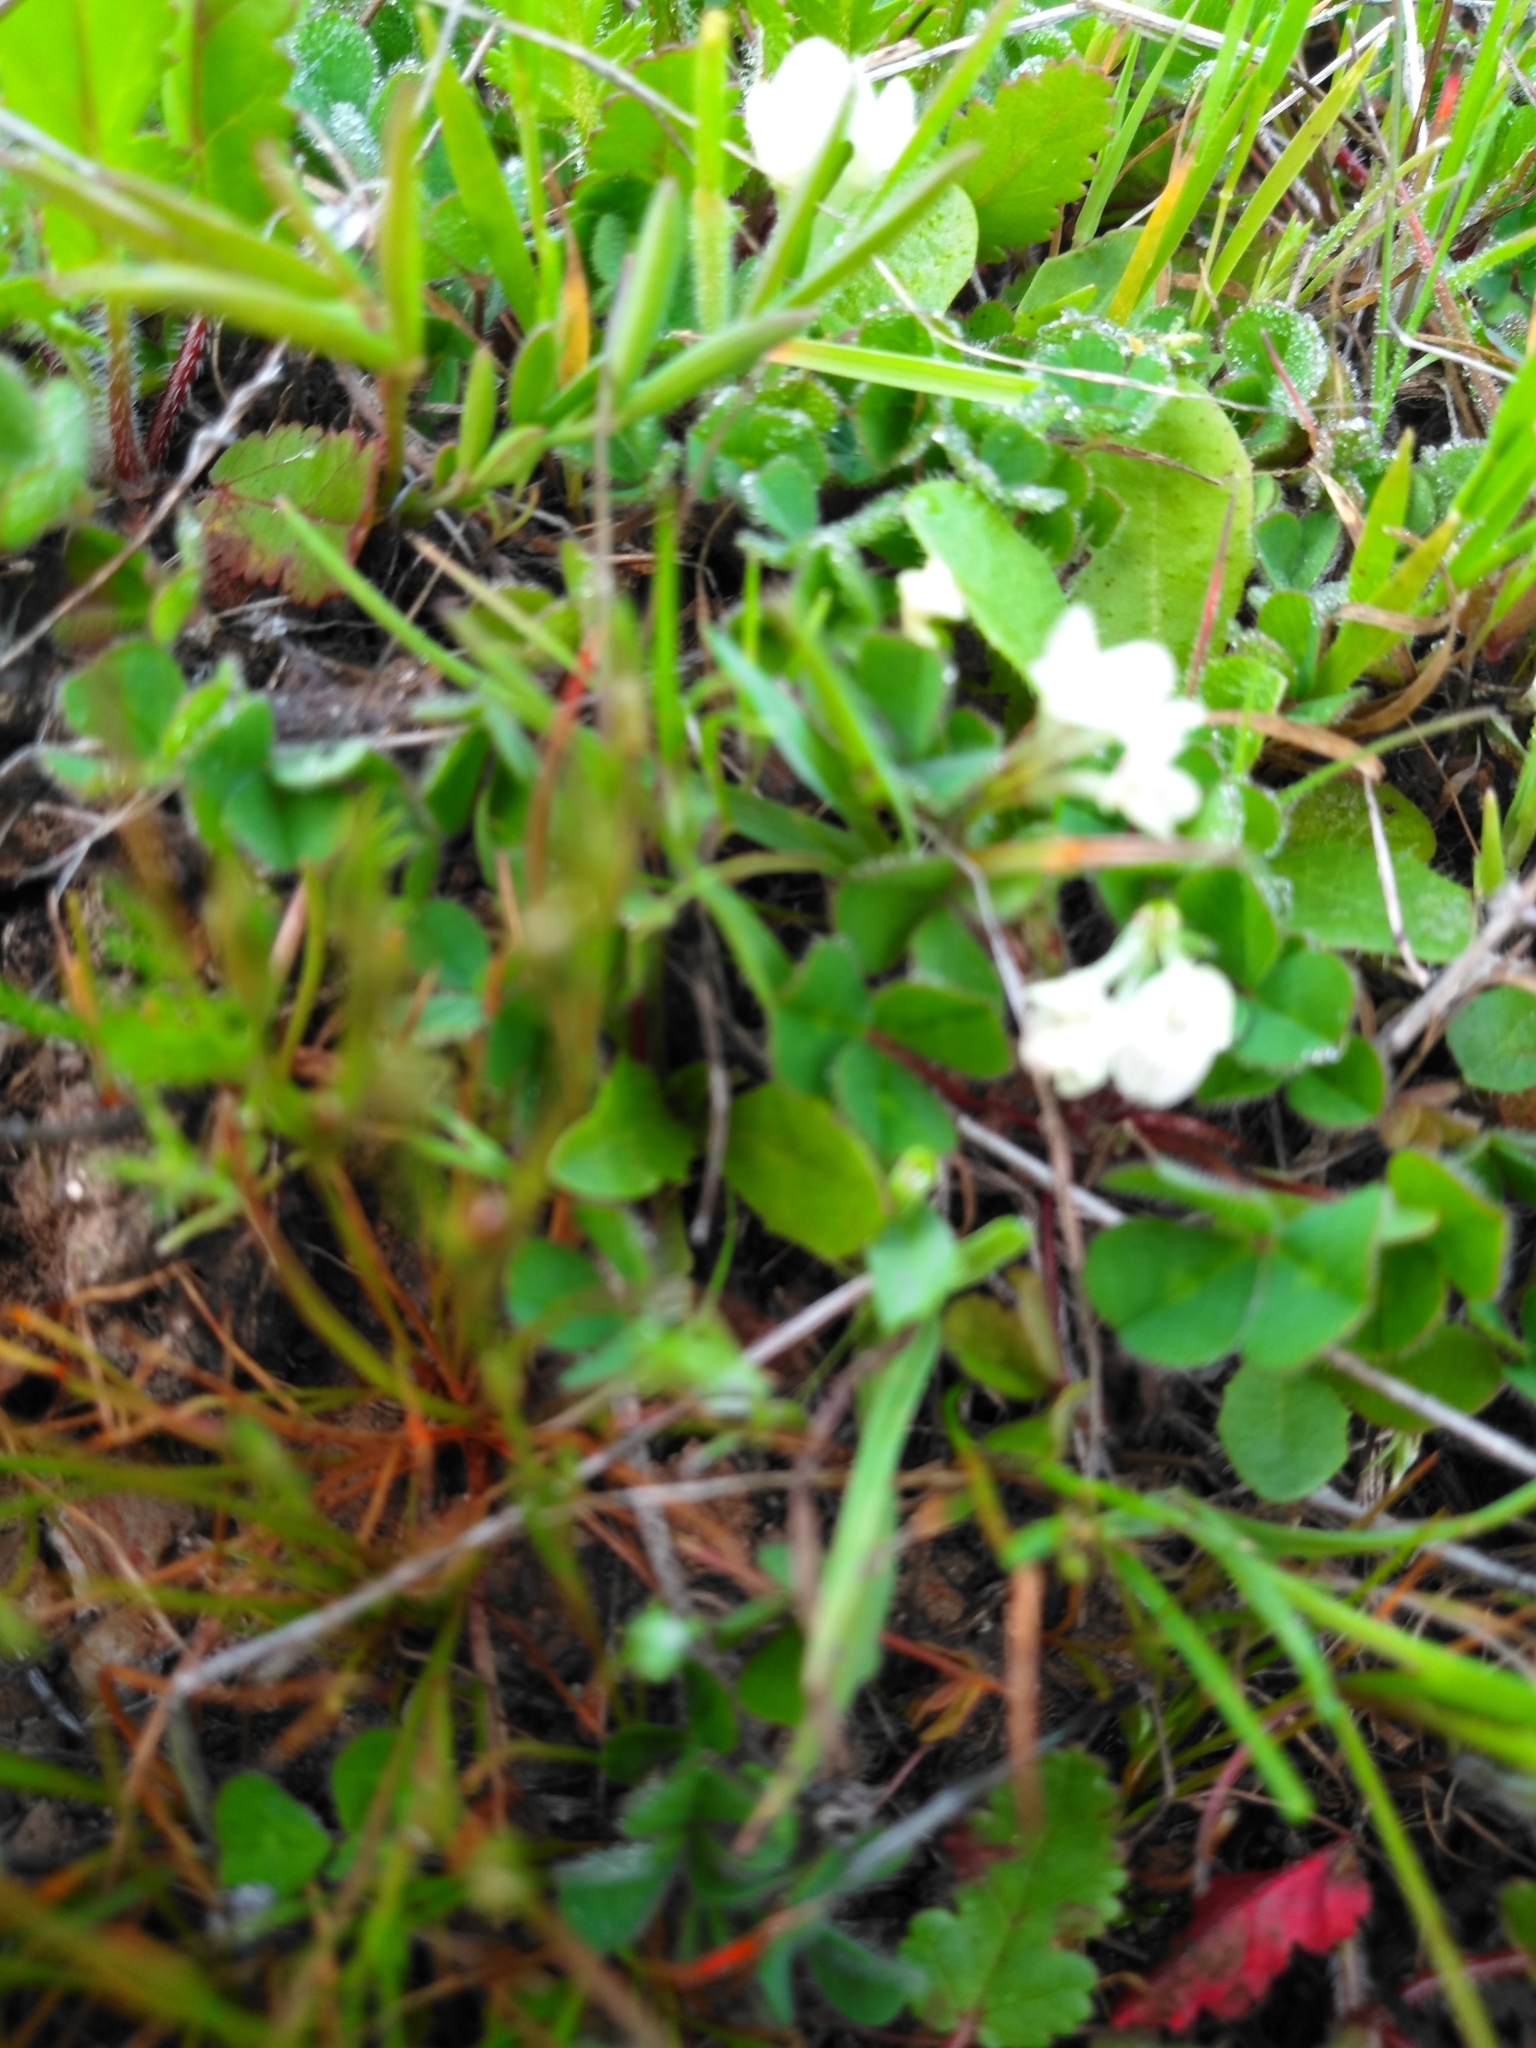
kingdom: Plantae
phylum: Tracheophyta
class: Magnoliopsida
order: Fabales
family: Fabaceae
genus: Trifolium
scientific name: Trifolium subterraneum
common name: Subterranean clover
